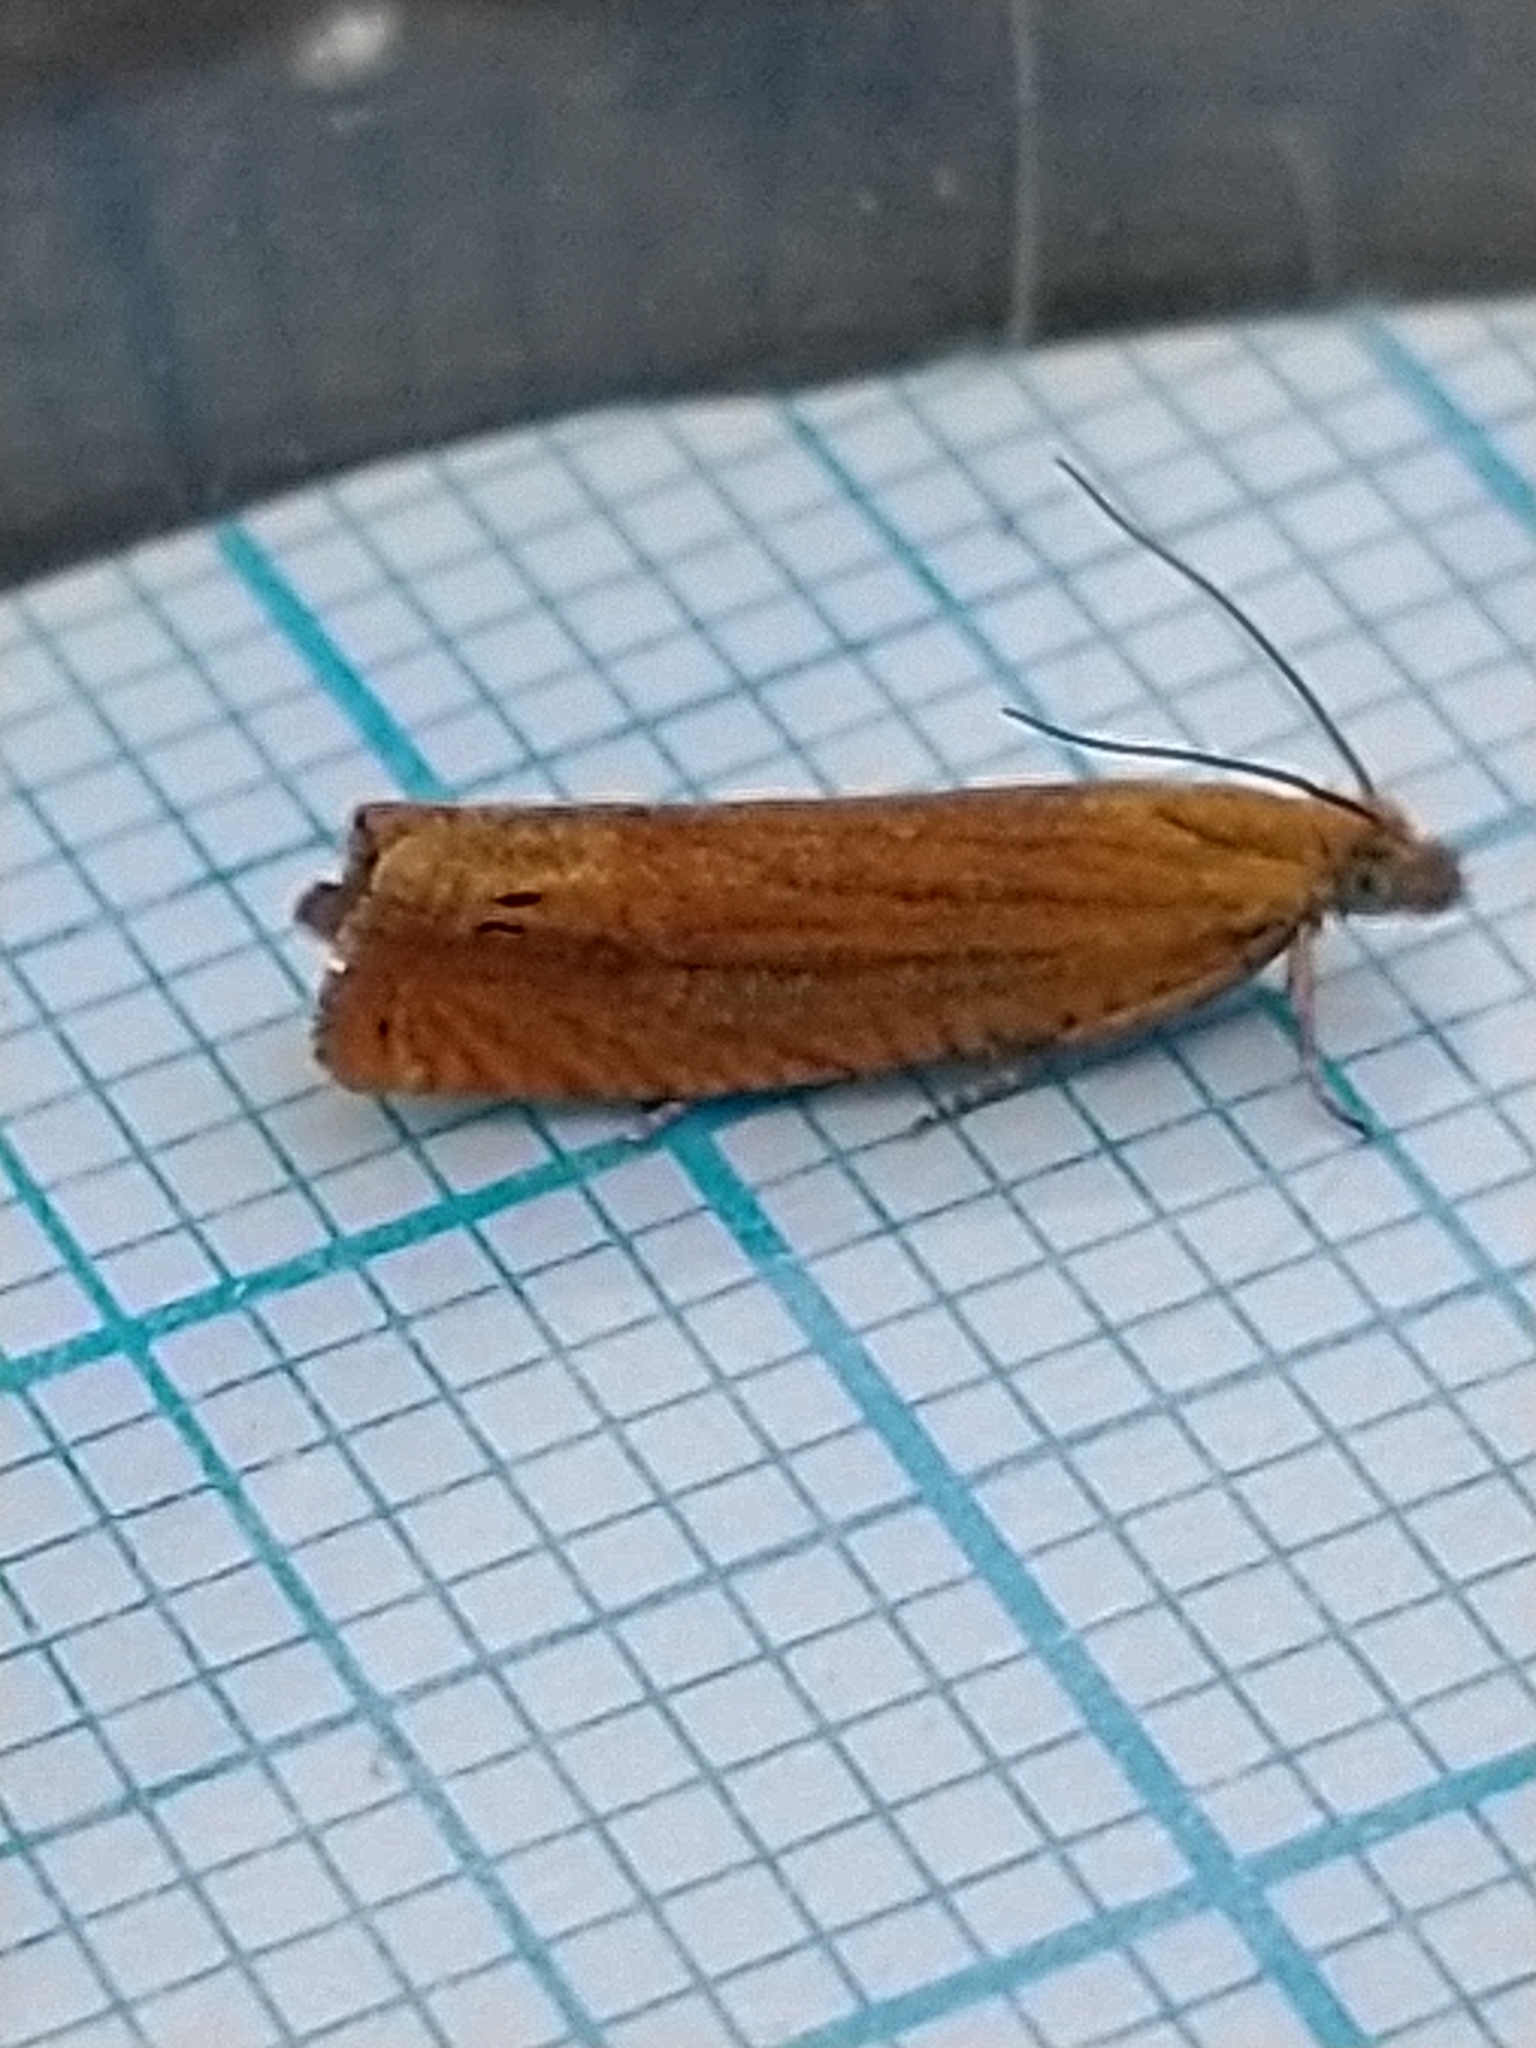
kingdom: Animalia
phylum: Arthropoda
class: Insecta
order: Lepidoptera
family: Tortricidae
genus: Lathronympha
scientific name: Lathronympha strigana
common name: Red piercer
